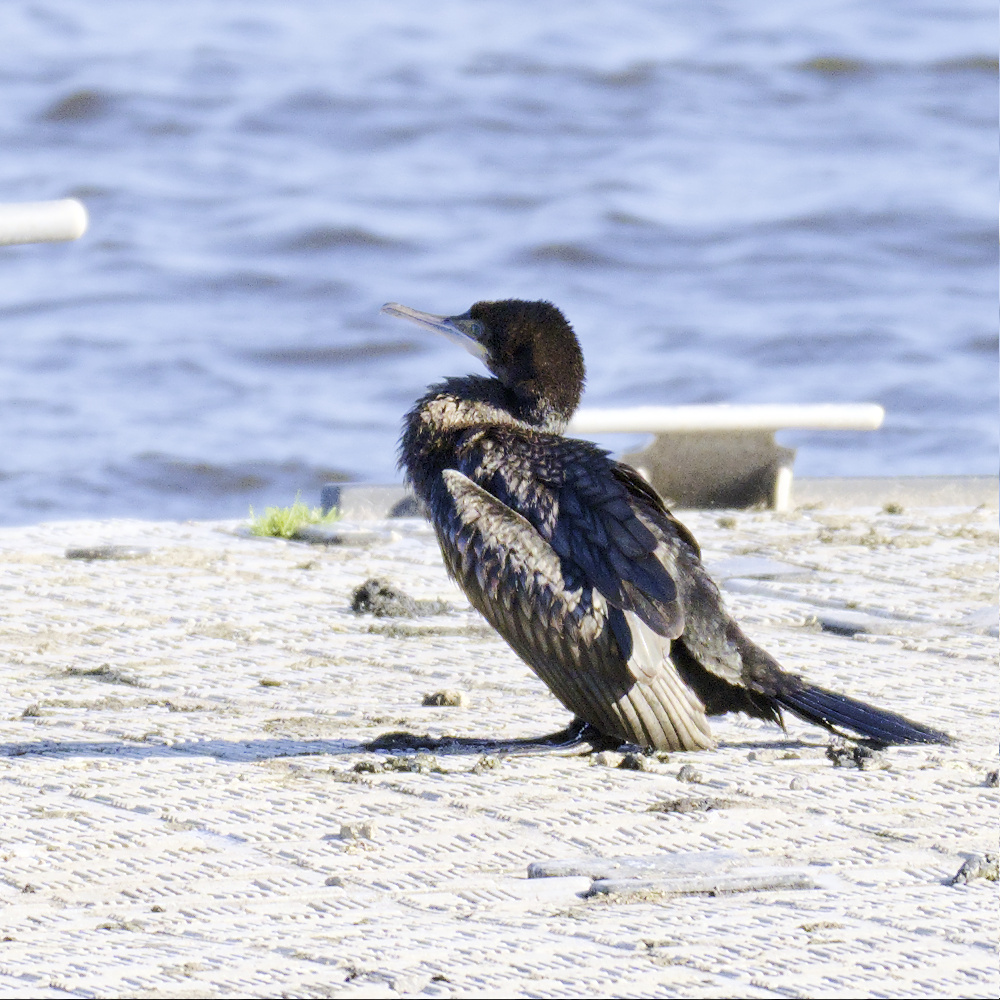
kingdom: Animalia
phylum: Chordata
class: Aves
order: Suliformes
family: Phalacrocoracidae
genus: Phalacrocorax
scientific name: Phalacrocorax sulcirostris
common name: Little black cormorant
